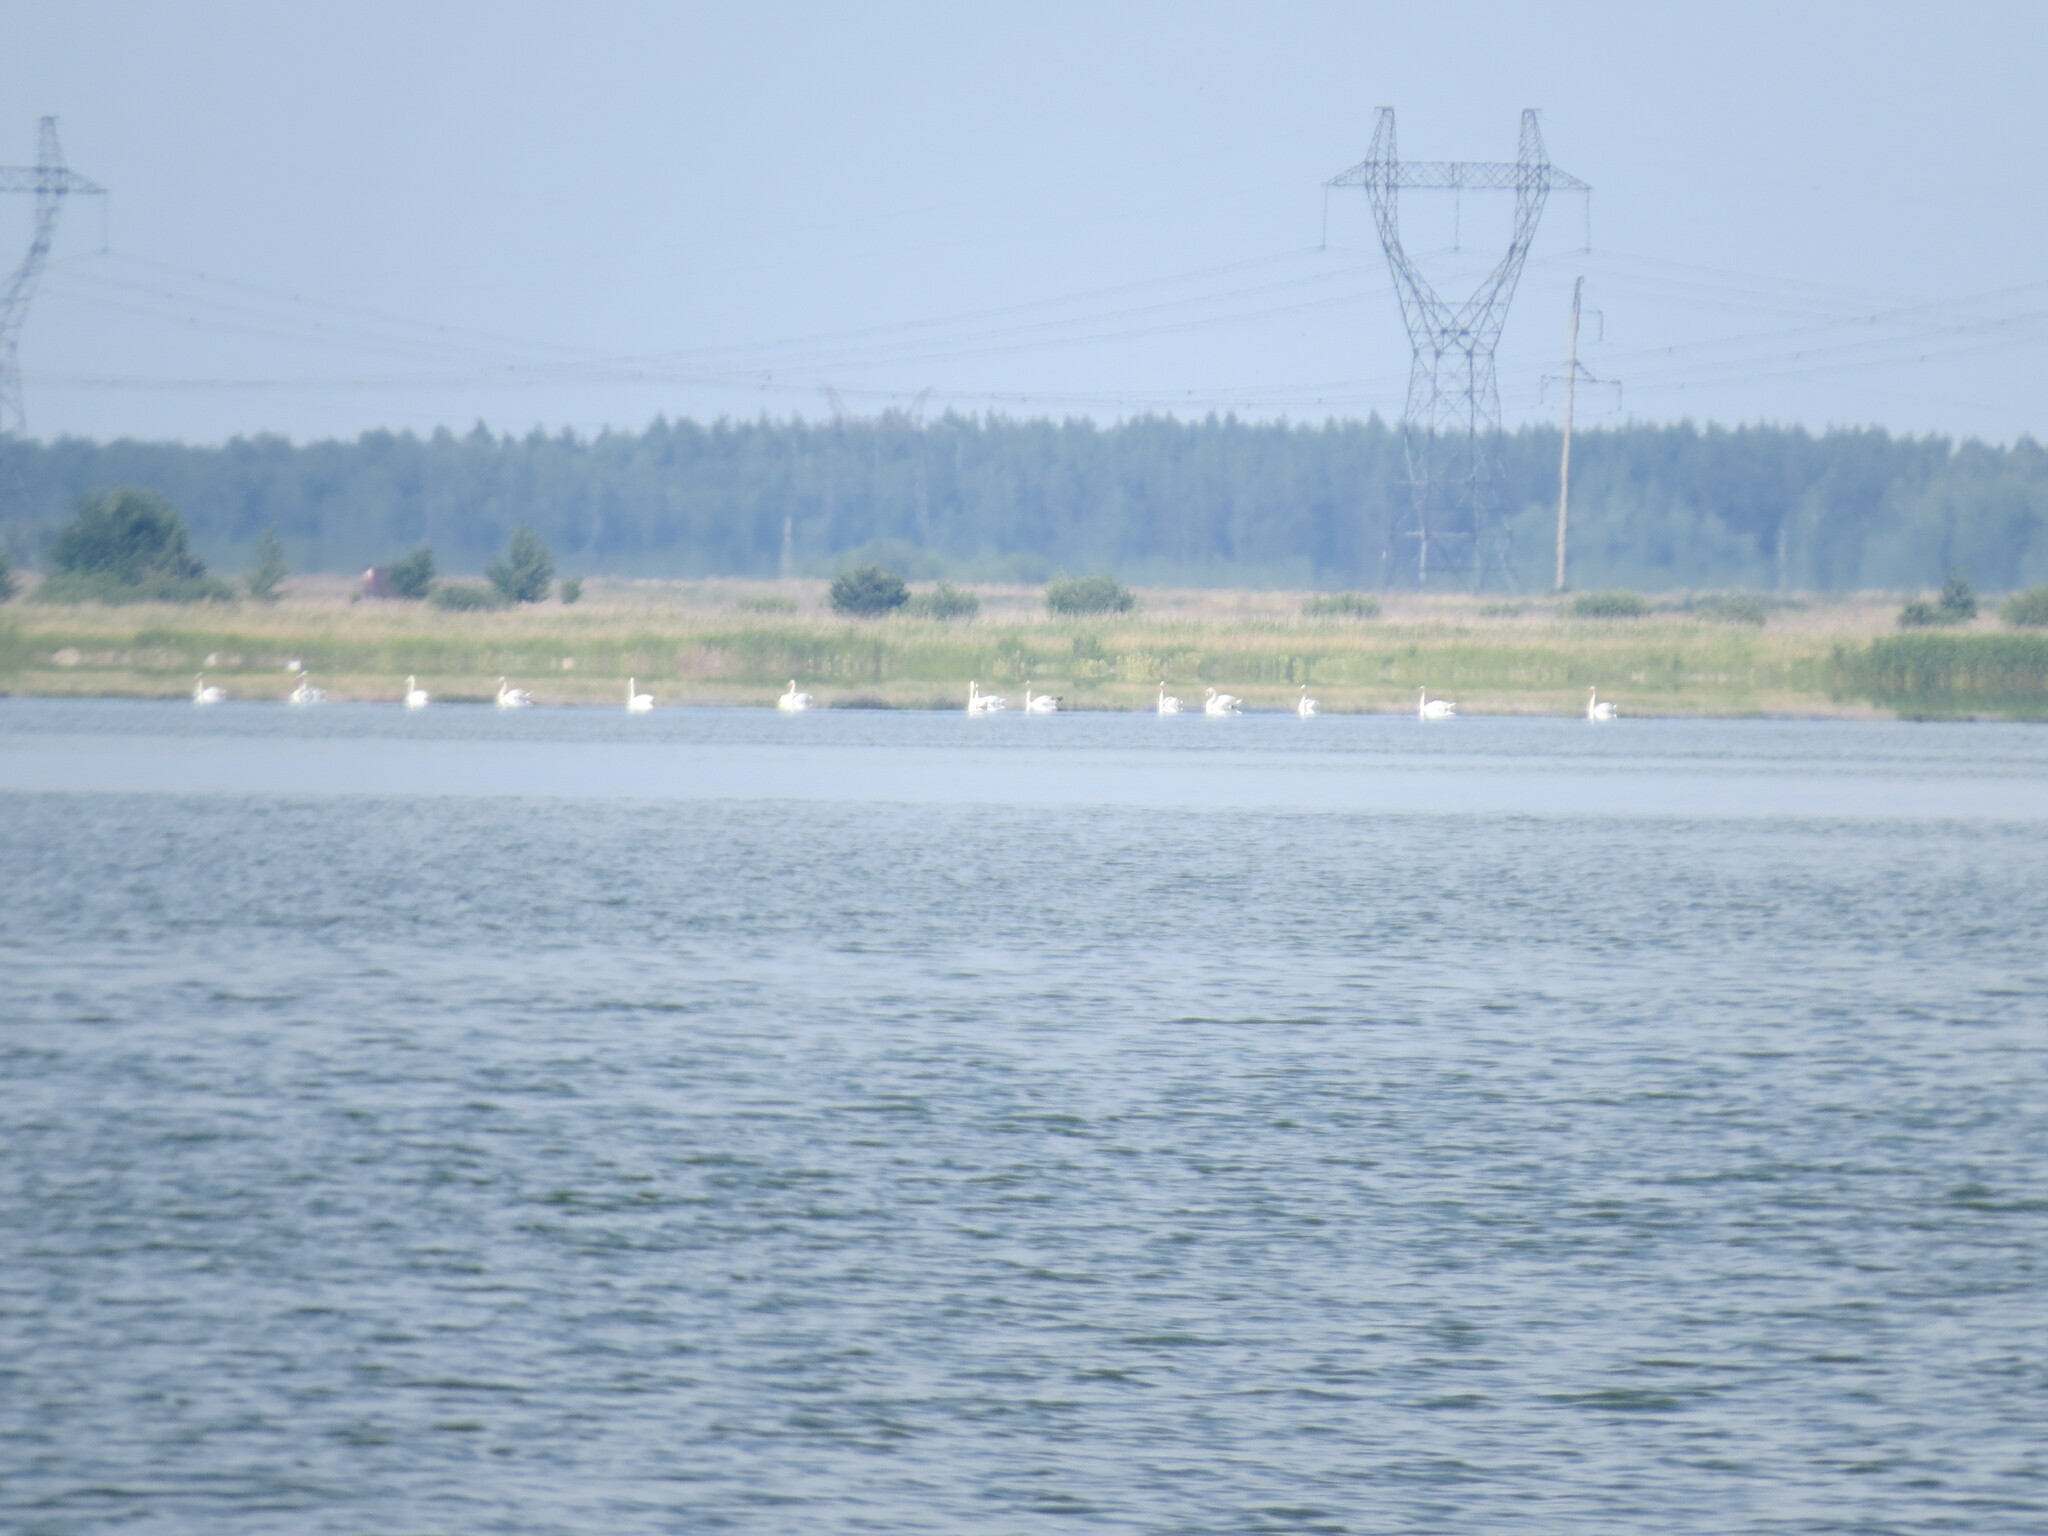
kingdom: Animalia
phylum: Chordata
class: Aves
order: Anseriformes
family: Anatidae
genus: Cygnus
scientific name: Cygnus olor
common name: Mute swan
